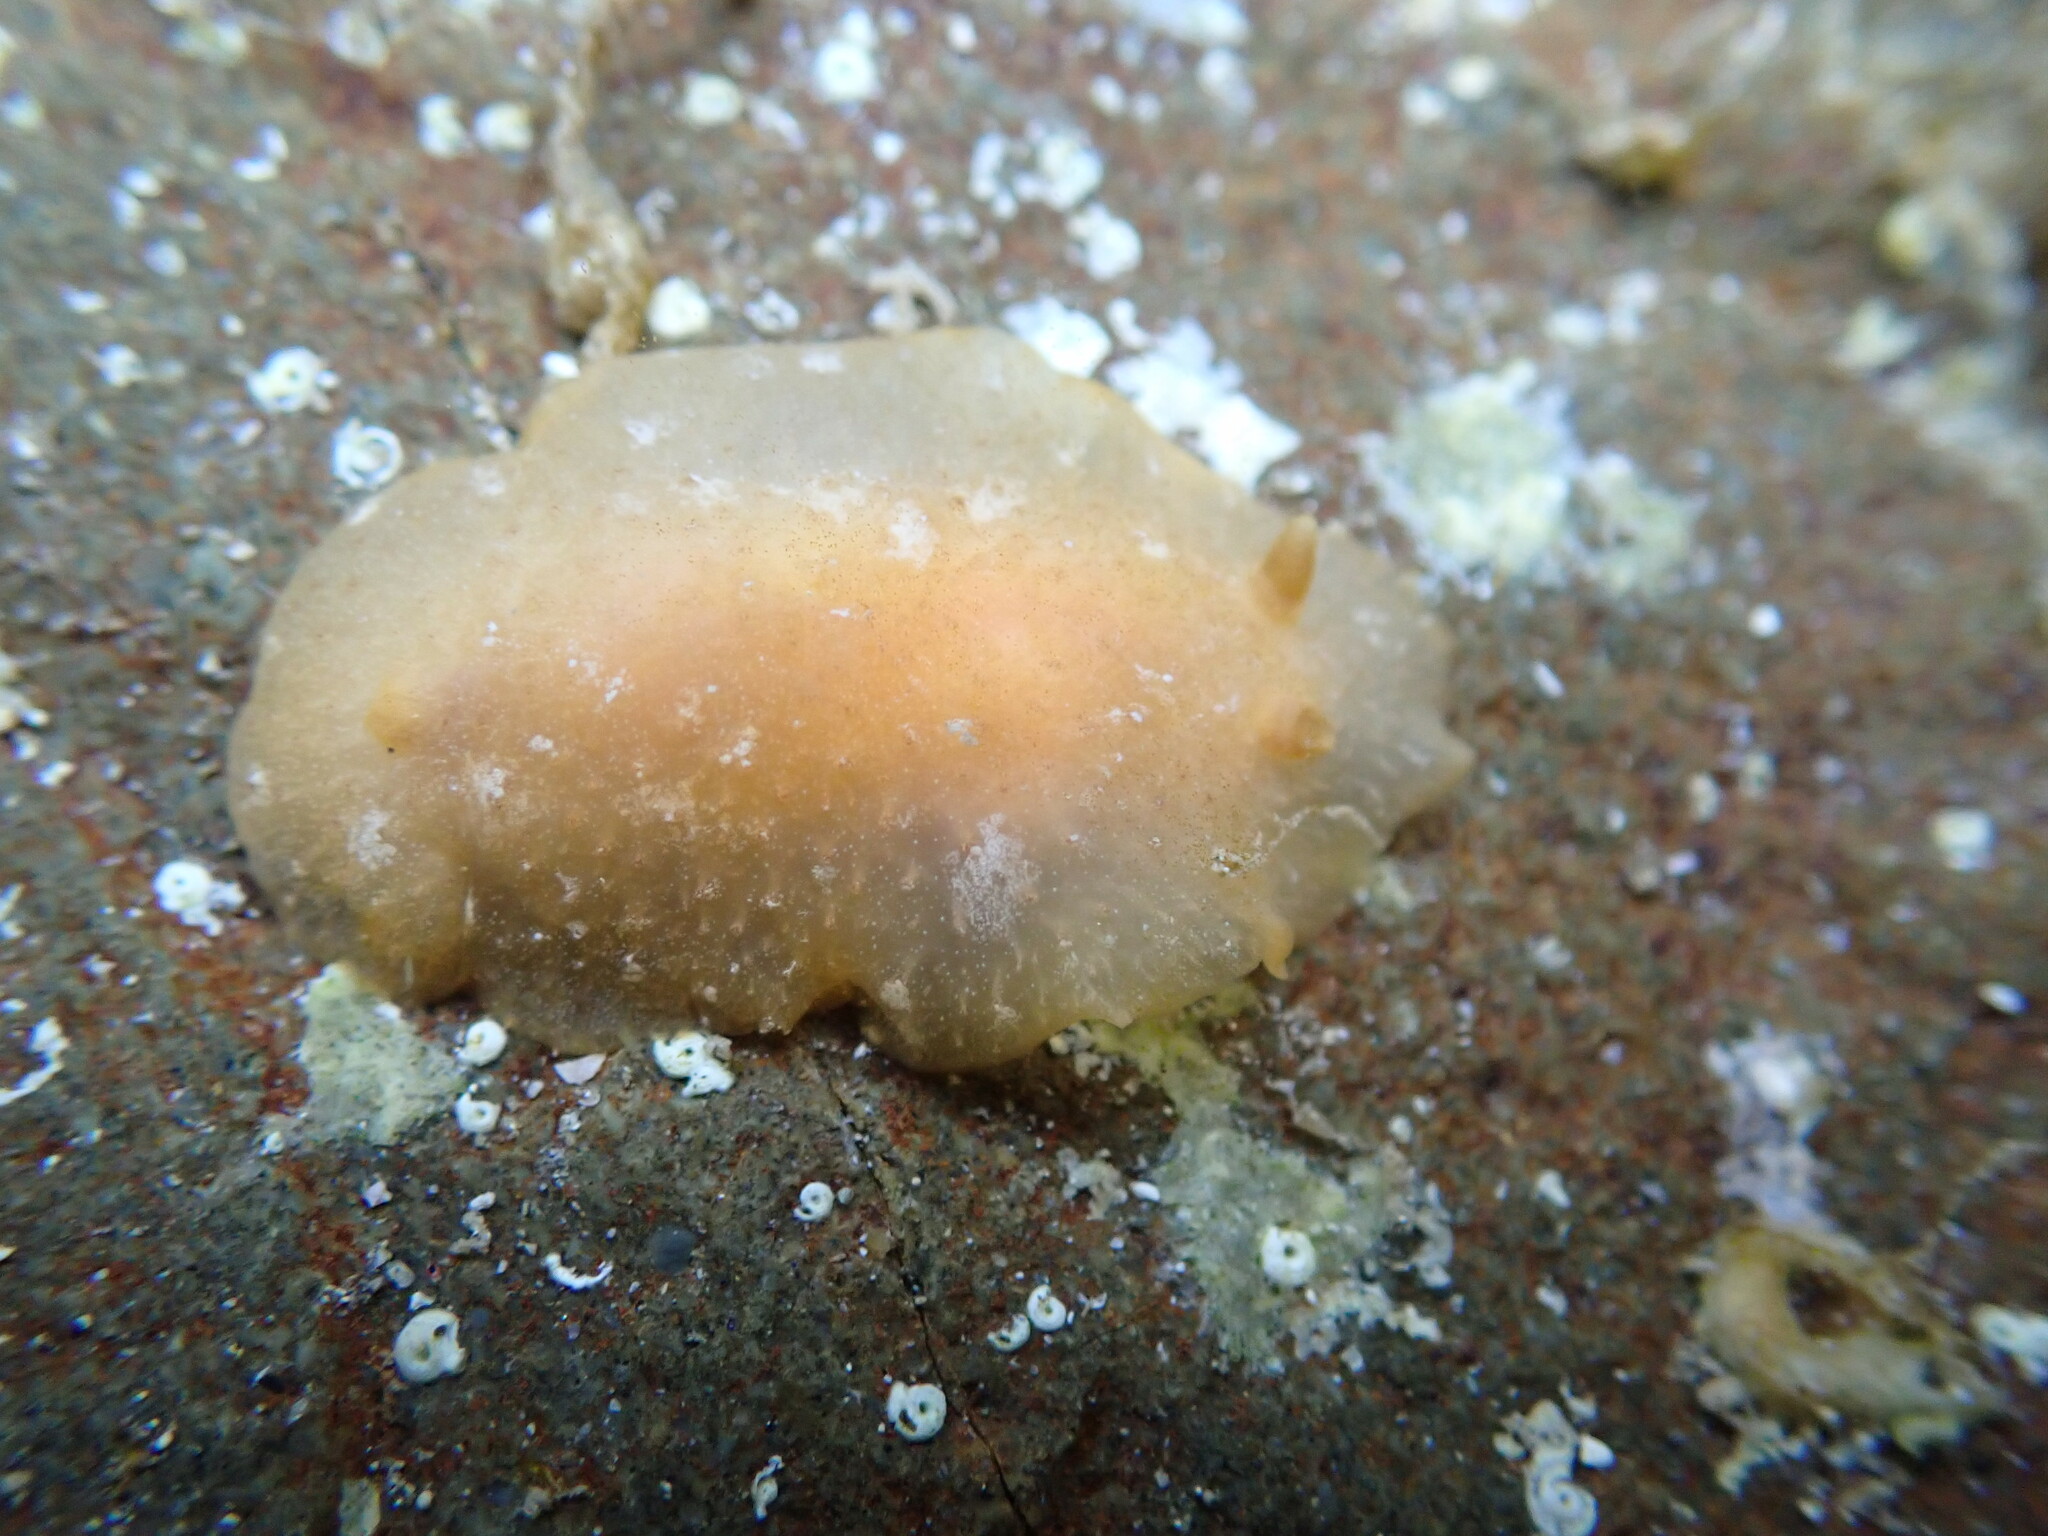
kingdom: Animalia
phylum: Mollusca
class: Gastropoda
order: Nudibranchia
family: Dendrodorididae
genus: Dendrodoris
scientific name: Dendrodoris citrina
